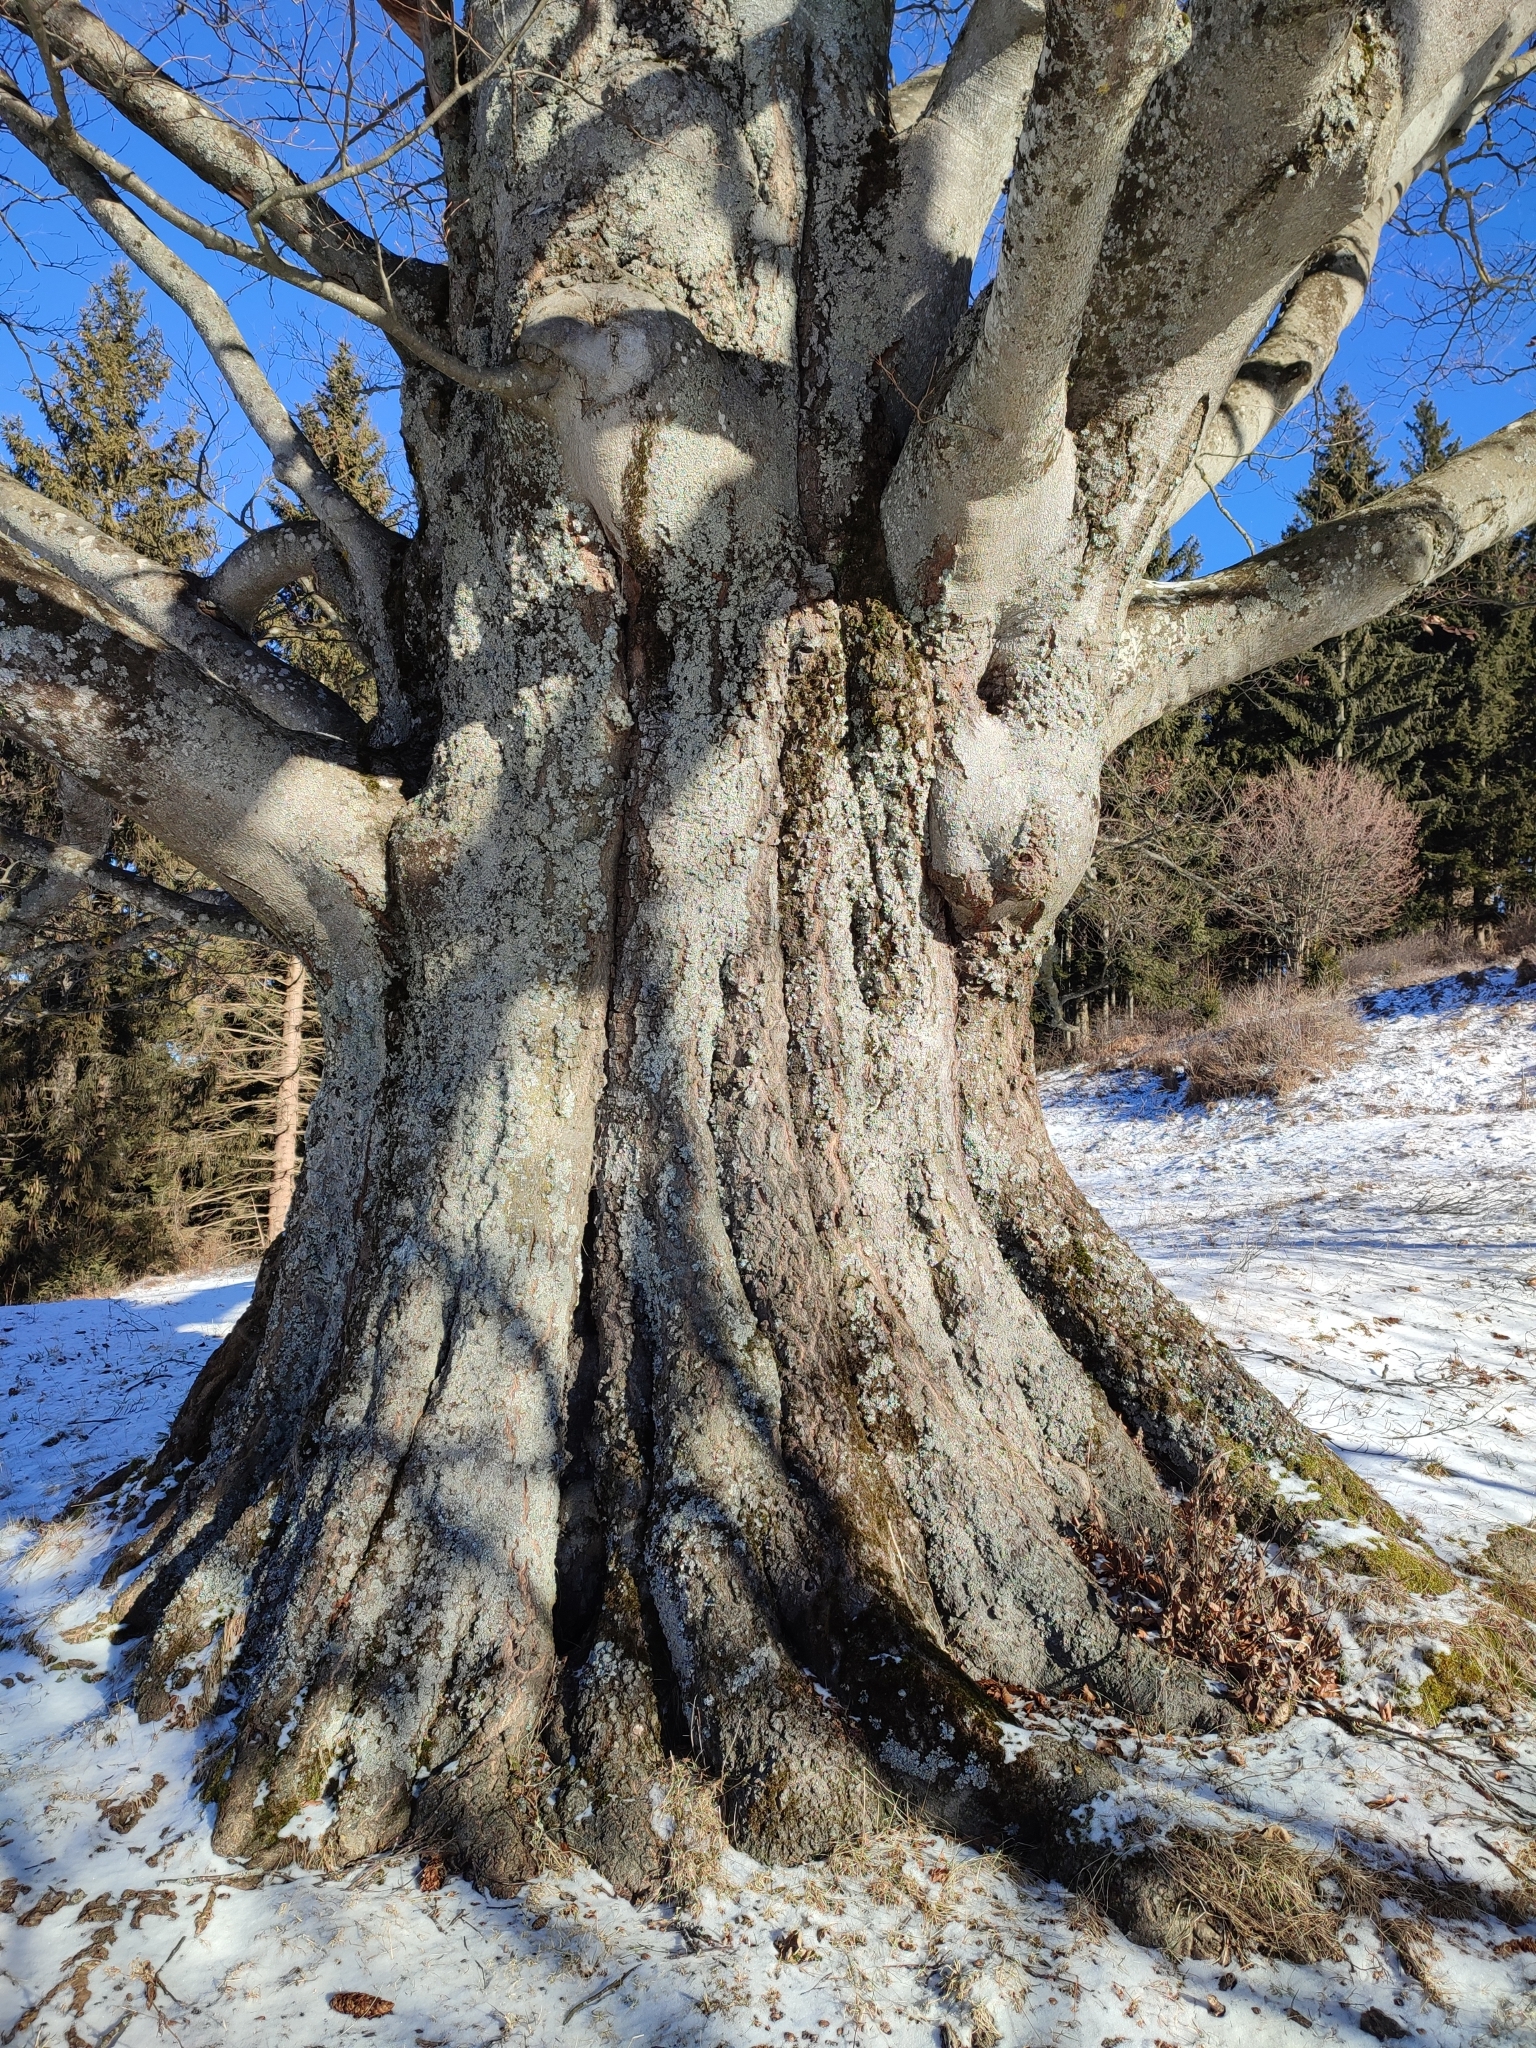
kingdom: Plantae
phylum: Tracheophyta
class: Magnoliopsida
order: Fagales
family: Fagaceae
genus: Fagus
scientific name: Fagus sylvatica
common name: Beech
